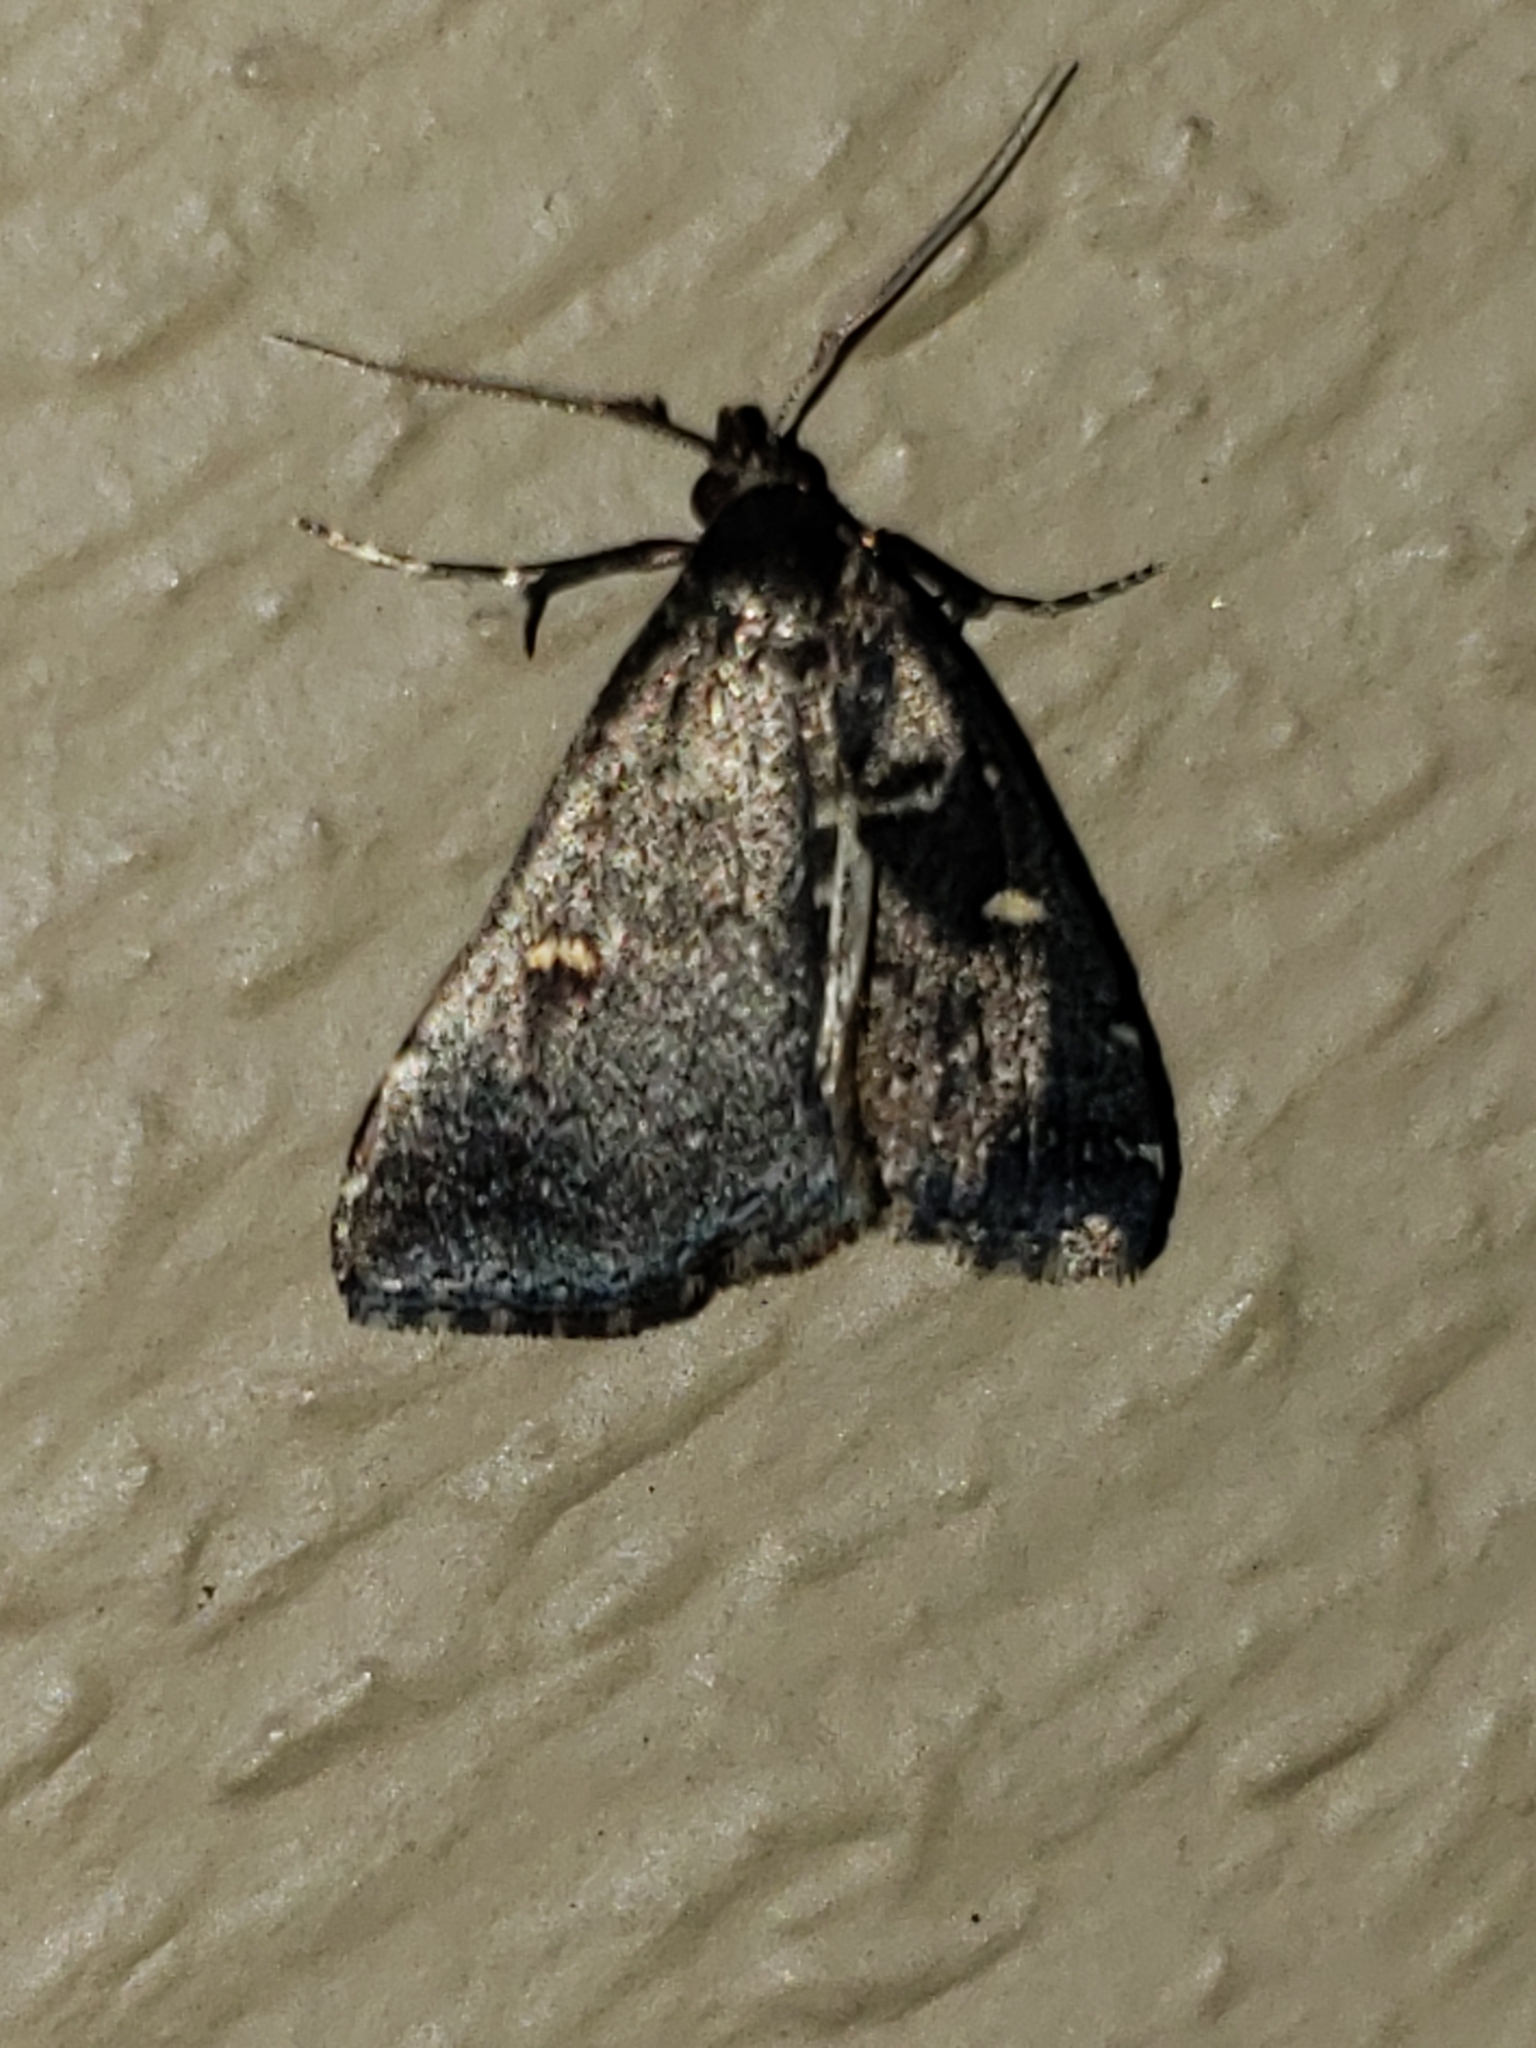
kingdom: Animalia
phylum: Arthropoda
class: Insecta
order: Lepidoptera
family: Erebidae
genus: Tetanolita
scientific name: Tetanolita mynesalis
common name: Smoky tetanolita moth
